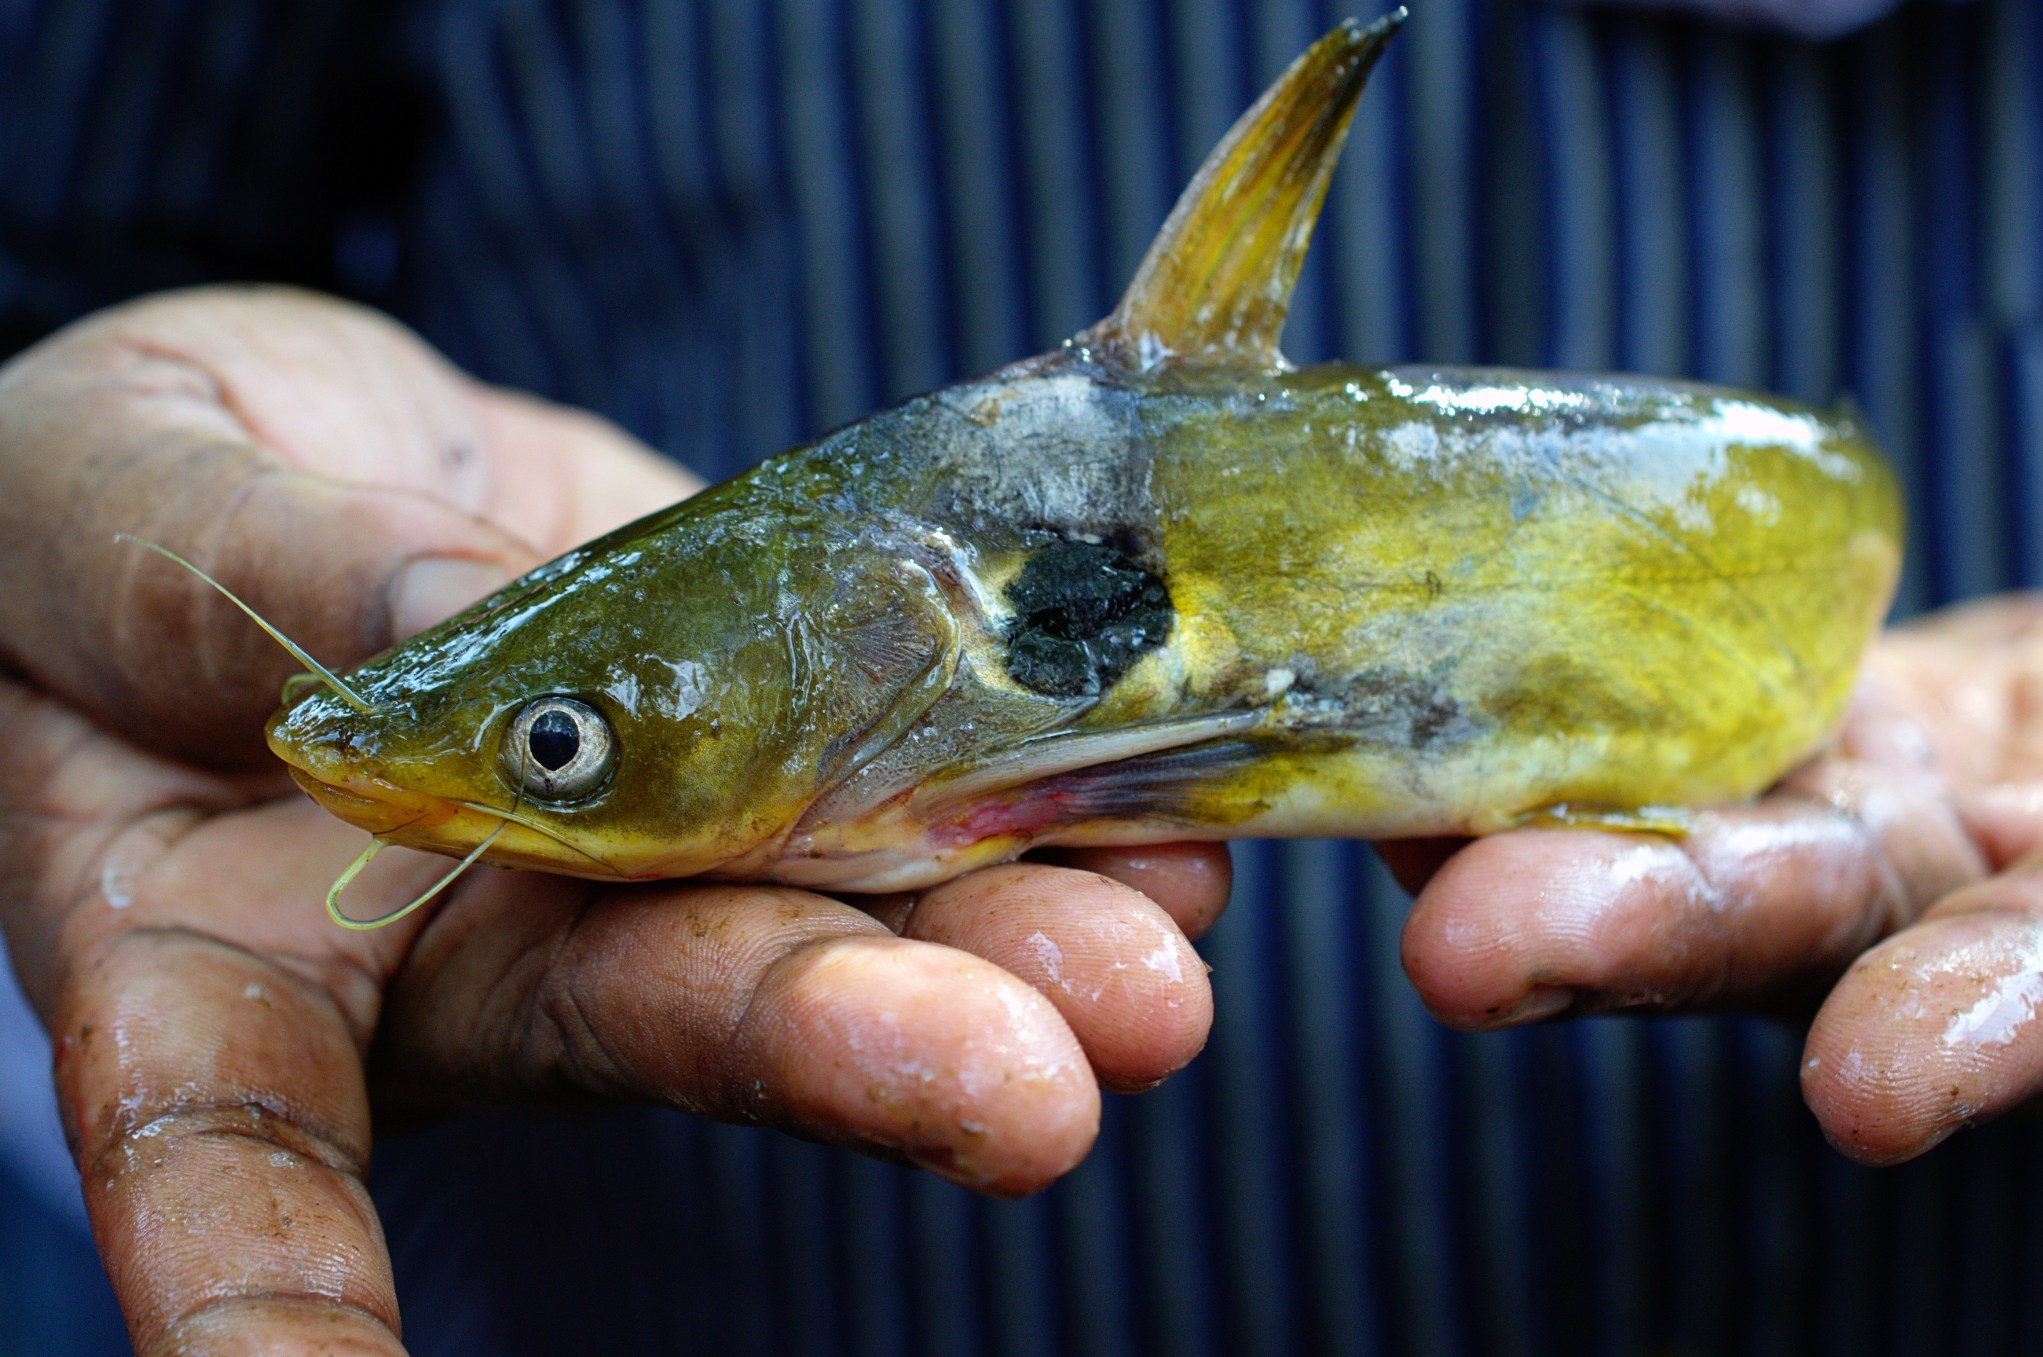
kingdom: Animalia
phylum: Chordata
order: Siluriformes
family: Bagridae
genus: Horabagrus
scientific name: Horabagrus brachysoma
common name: Bulls eye catfish
